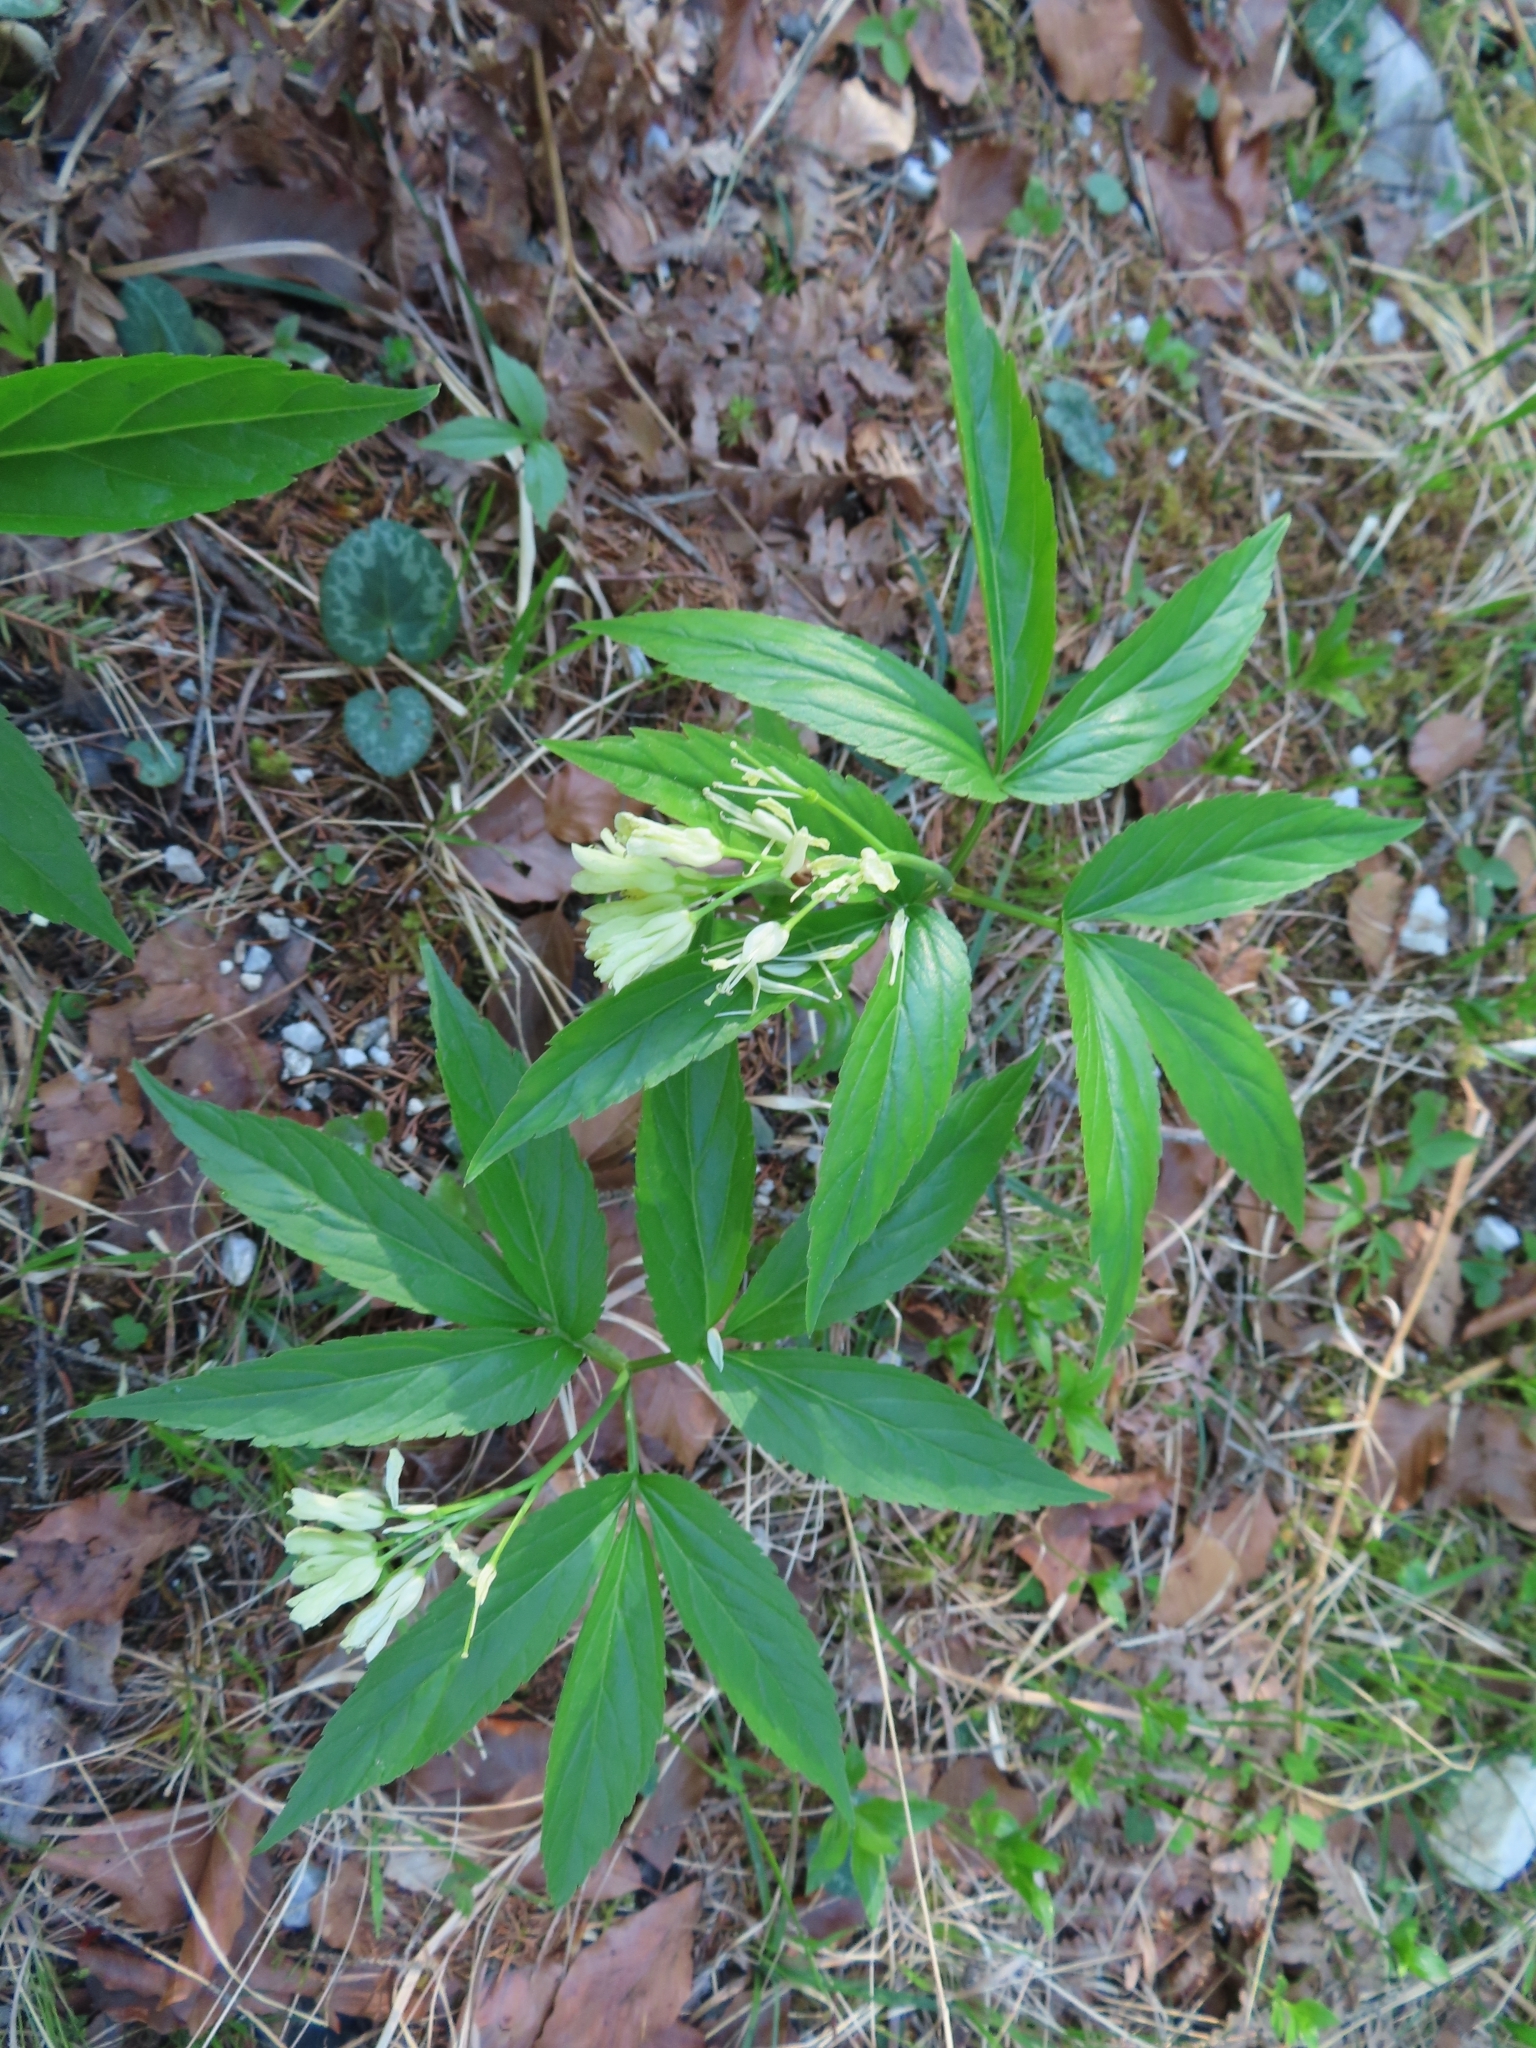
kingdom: Plantae
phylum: Tracheophyta
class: Magnoliopsida
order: Brassicales
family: Brassicaceae
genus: Cardamine
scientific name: Cardamine enneaphyllos
